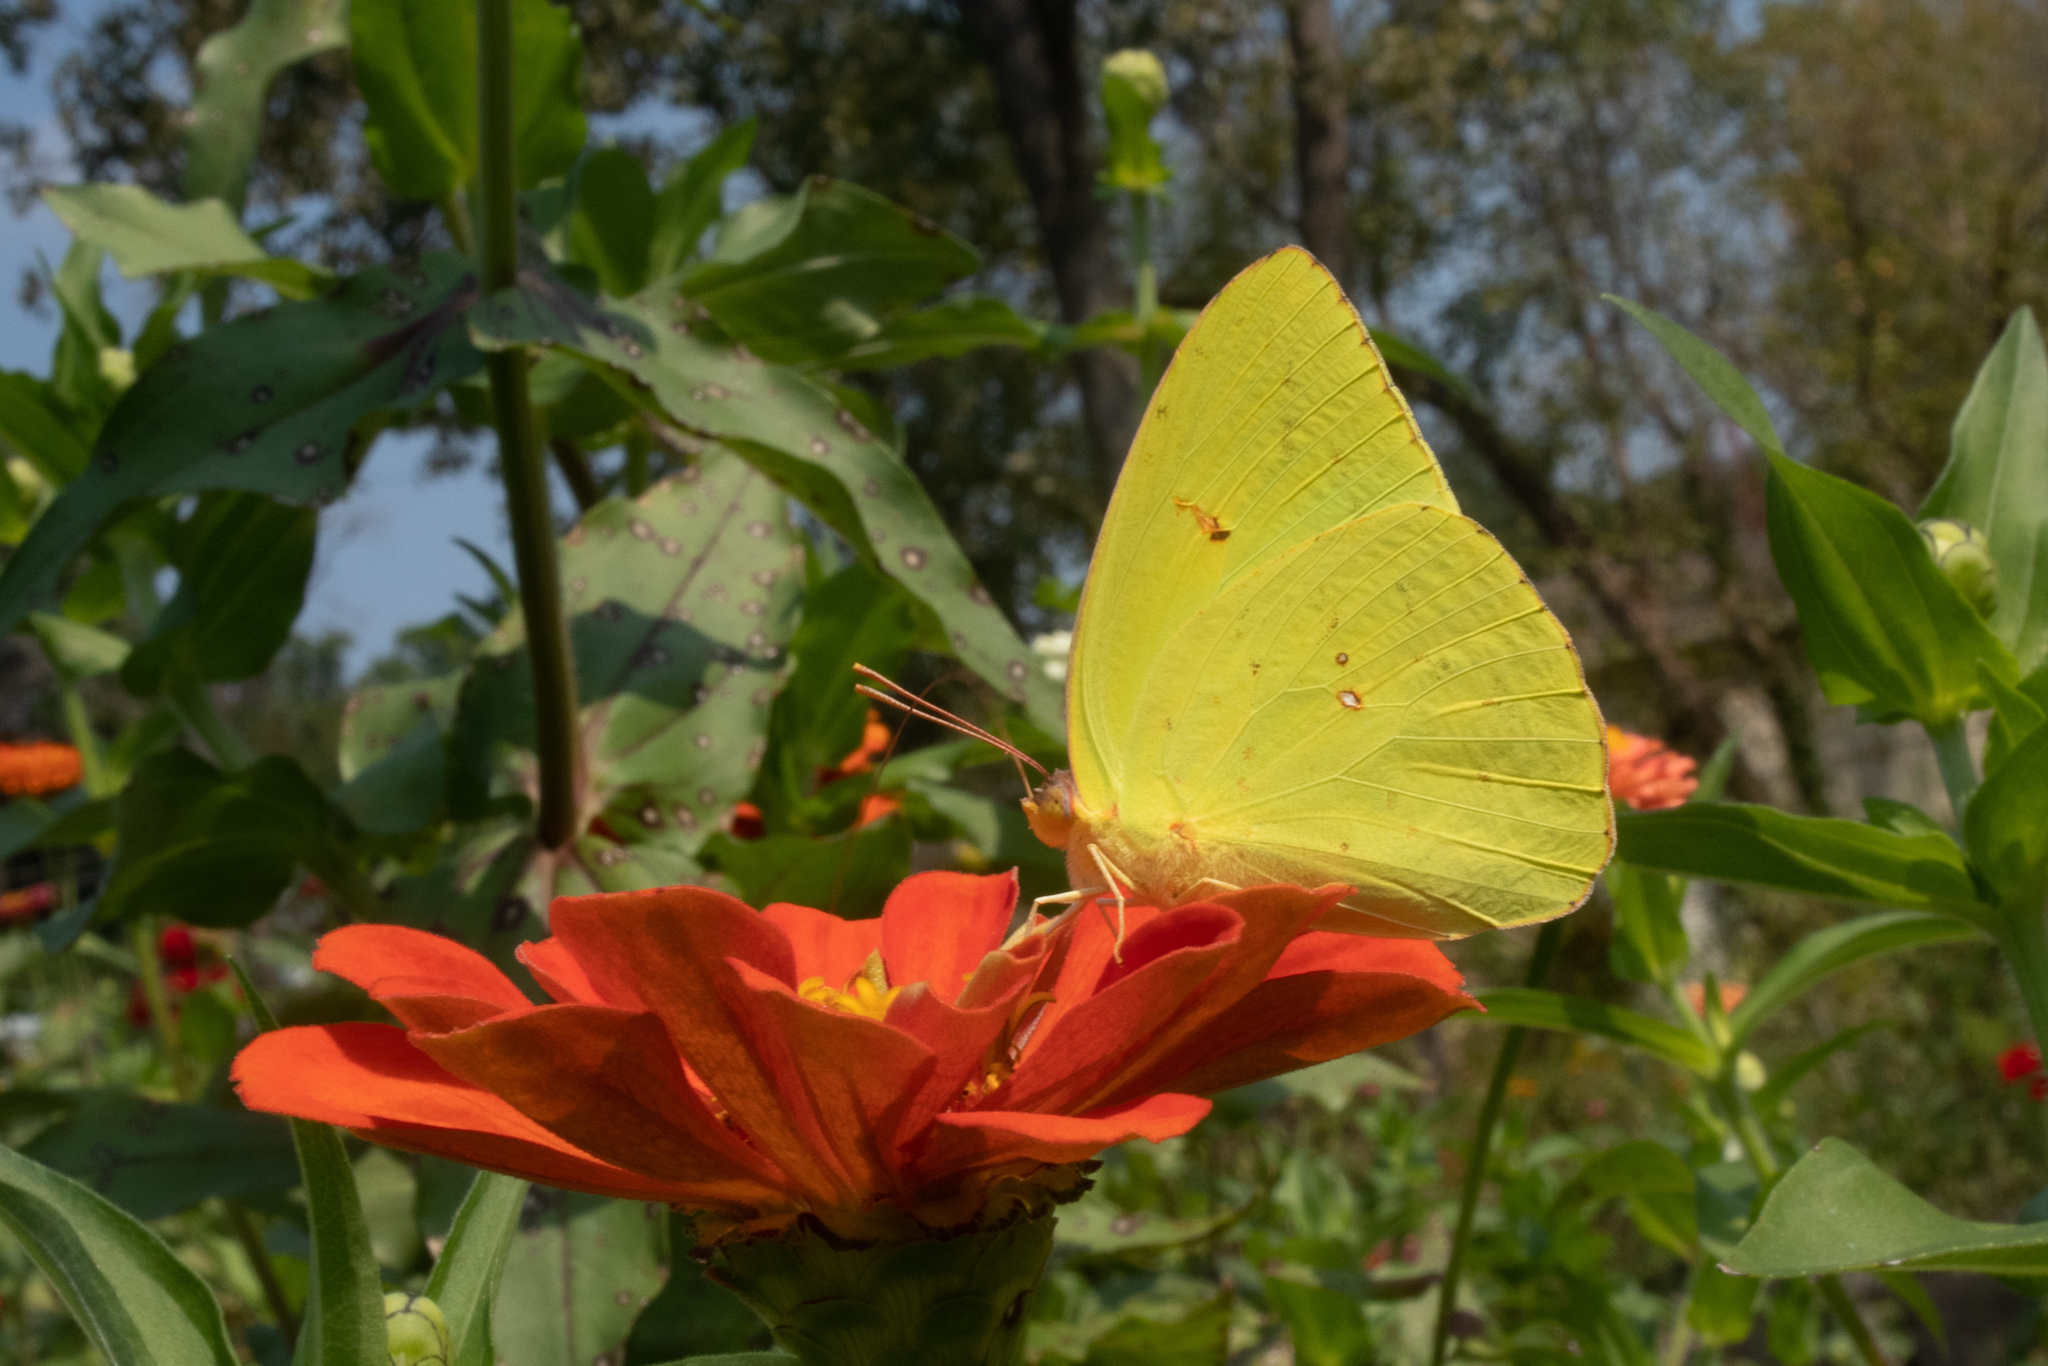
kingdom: Animalia
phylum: Arthropoda
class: Insecta
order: Lepidoptera
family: Pieridae
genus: Phoebis
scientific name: Phoebis sennae
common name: Cloudless sulphur
